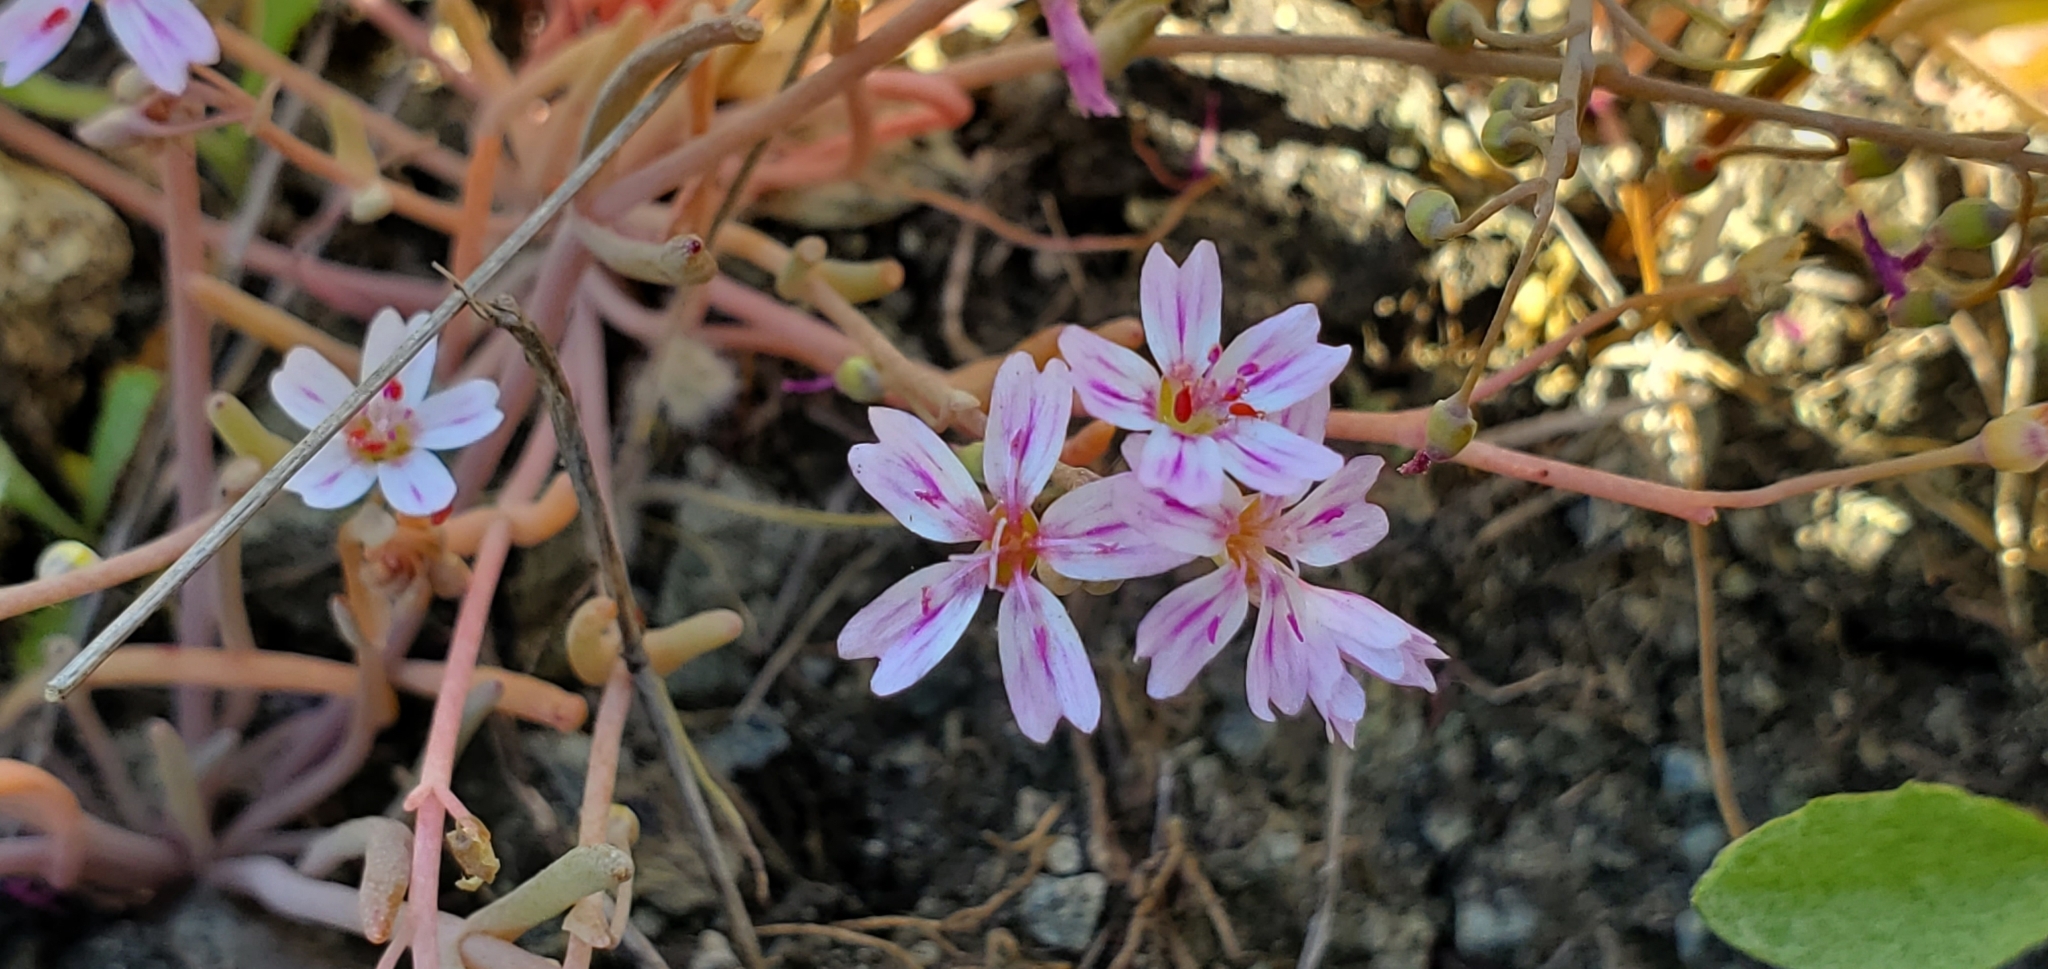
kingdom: Plantae
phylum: Tracheophyta
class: Magnoliopsida
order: Caryophyllales
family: Montiaceae
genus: Claytonia
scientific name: Claytonia gypsophiloides
